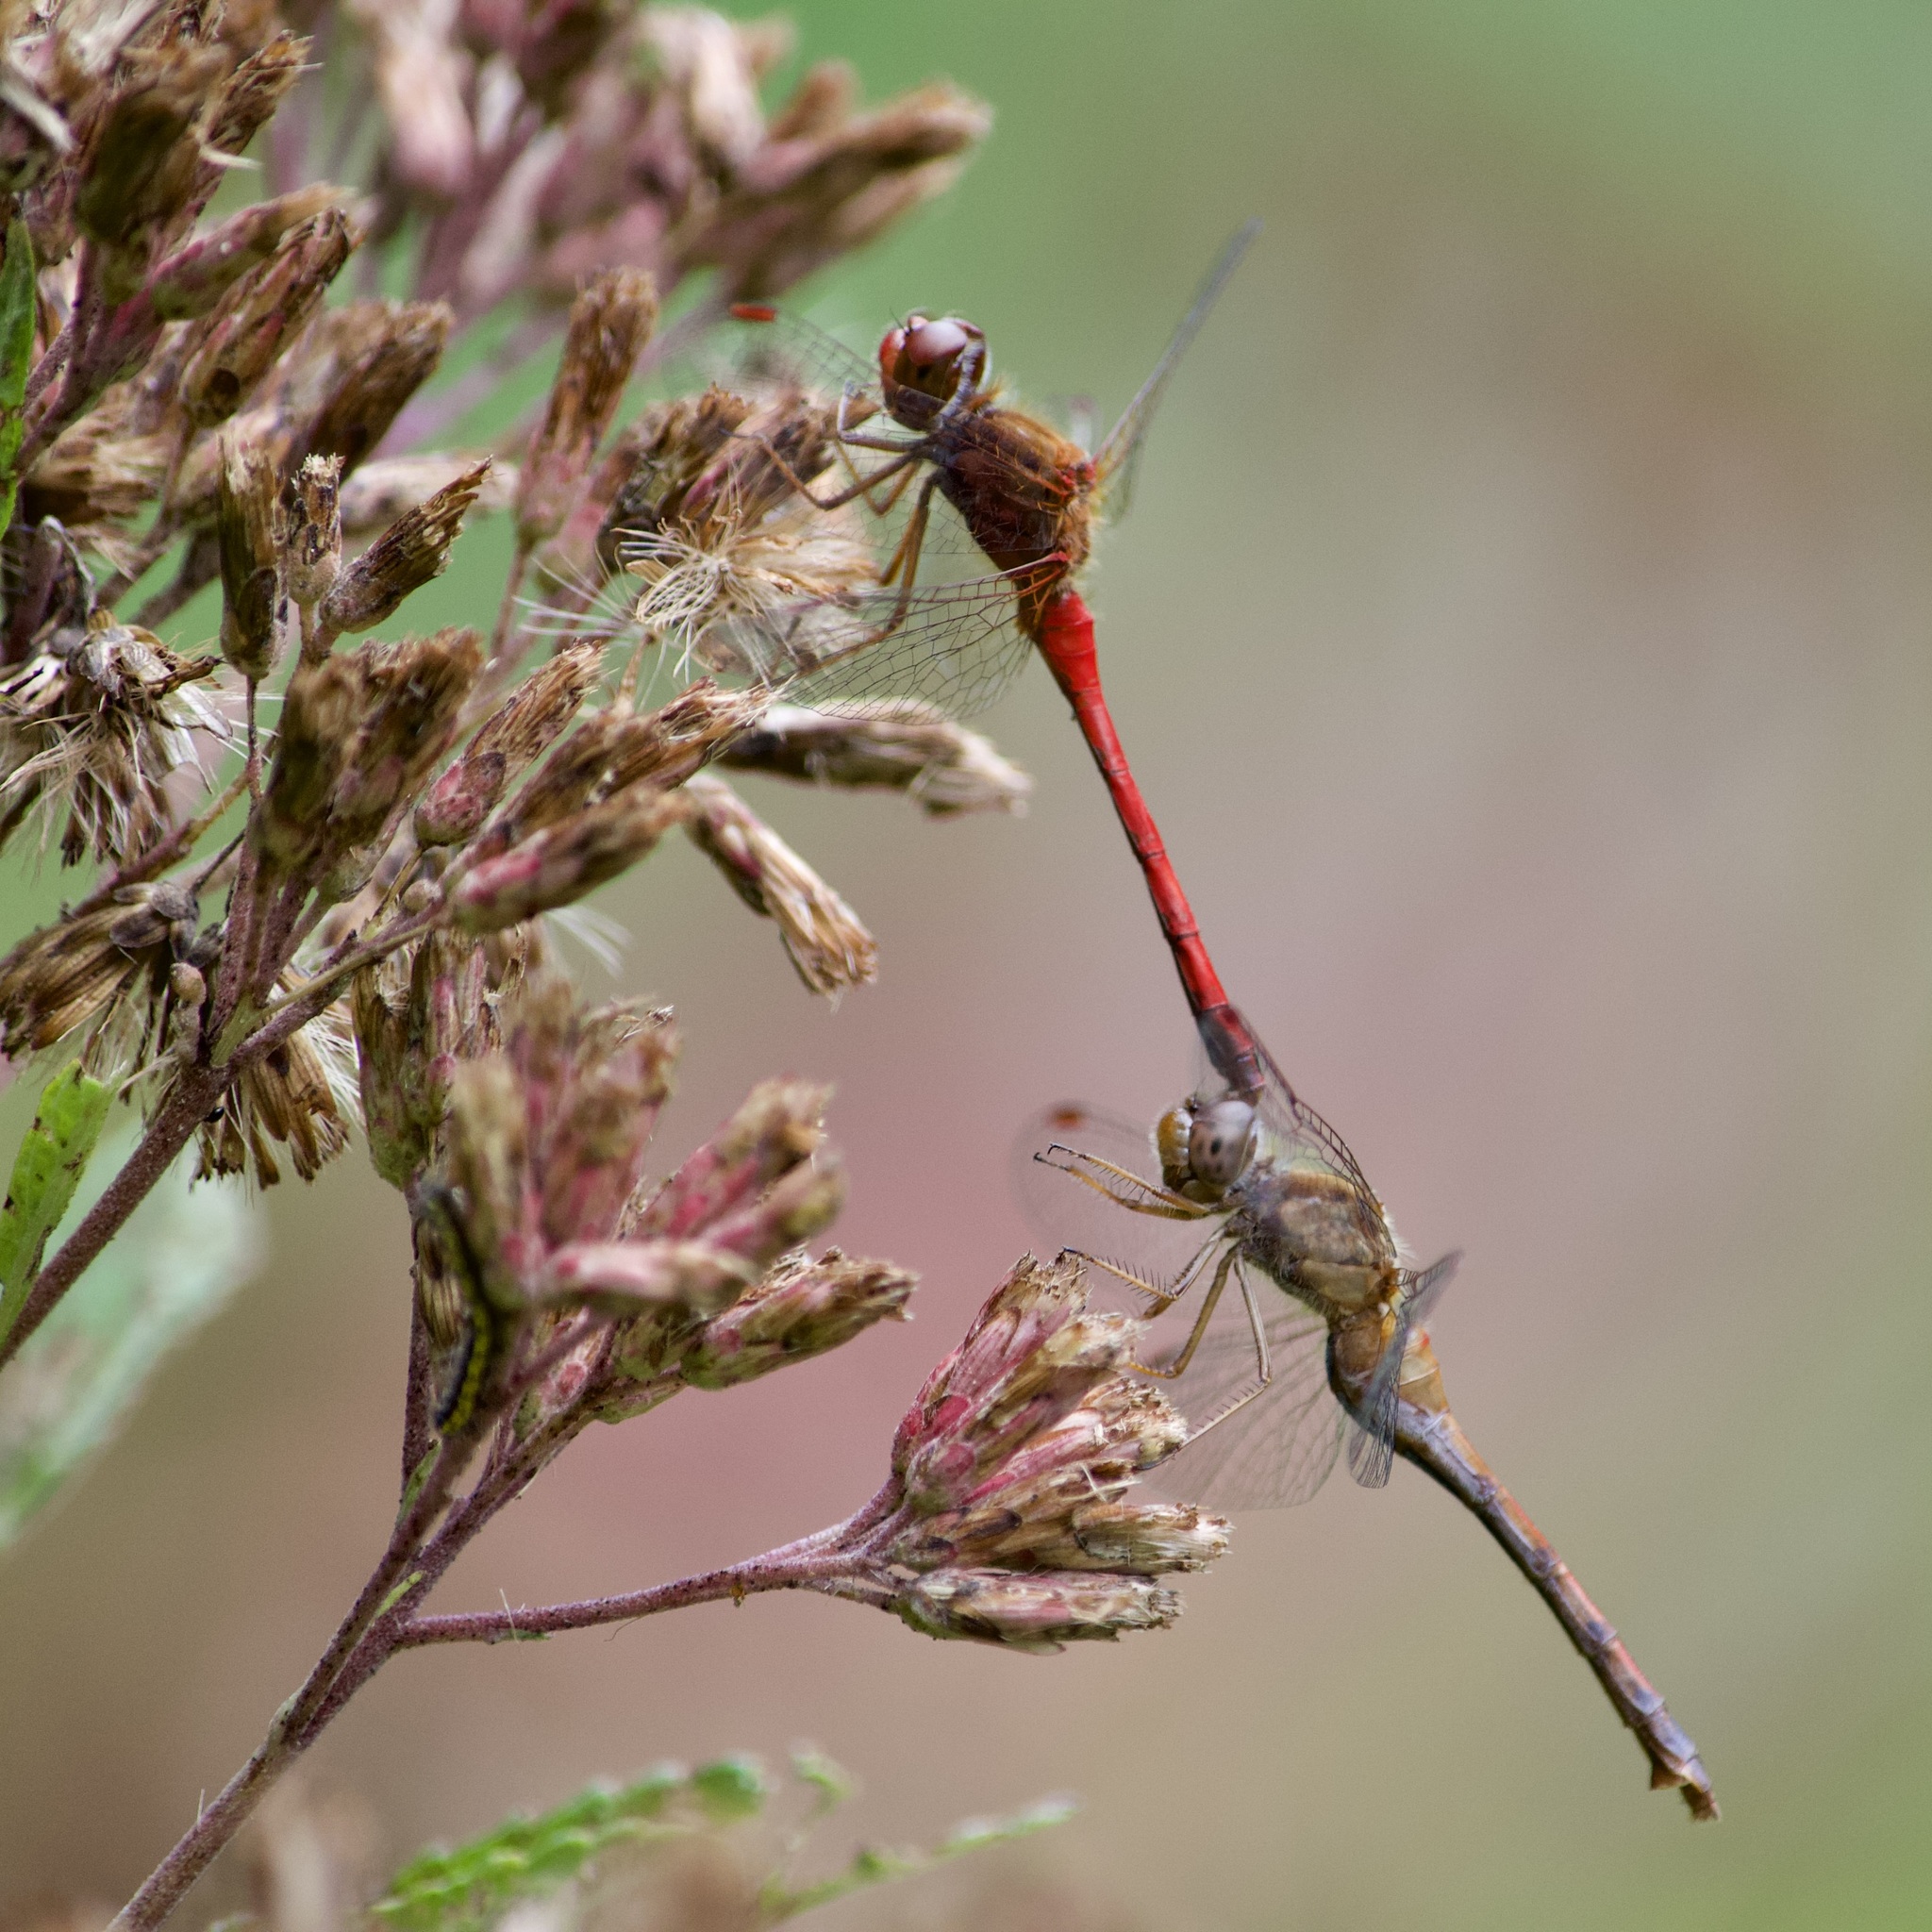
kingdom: Animalia
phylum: Arthropoda
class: Insecta
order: Odonata
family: Libellulidae
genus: Sympetrum
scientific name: Sympetrum vicinum
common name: Autumn meadowhawk
